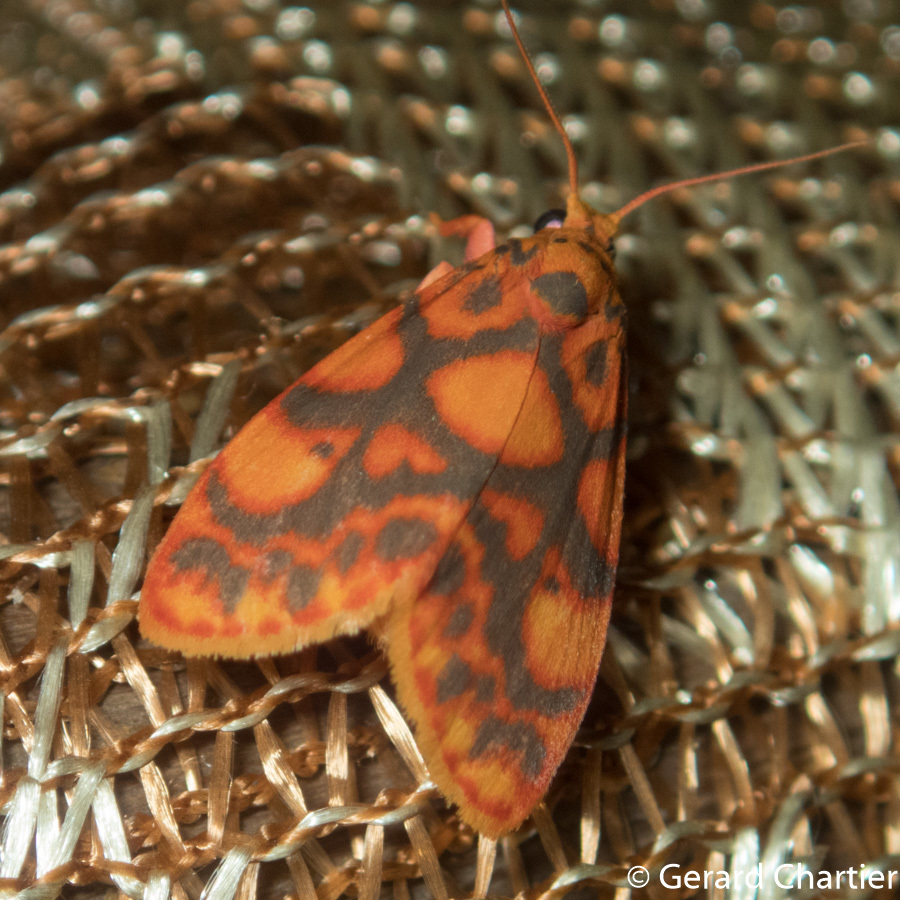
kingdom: Animalia
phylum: Arthropoda
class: Insecta
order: Lepidoptera
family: Erebidae
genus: Nanarsine
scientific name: Nanarsine porphyrea
